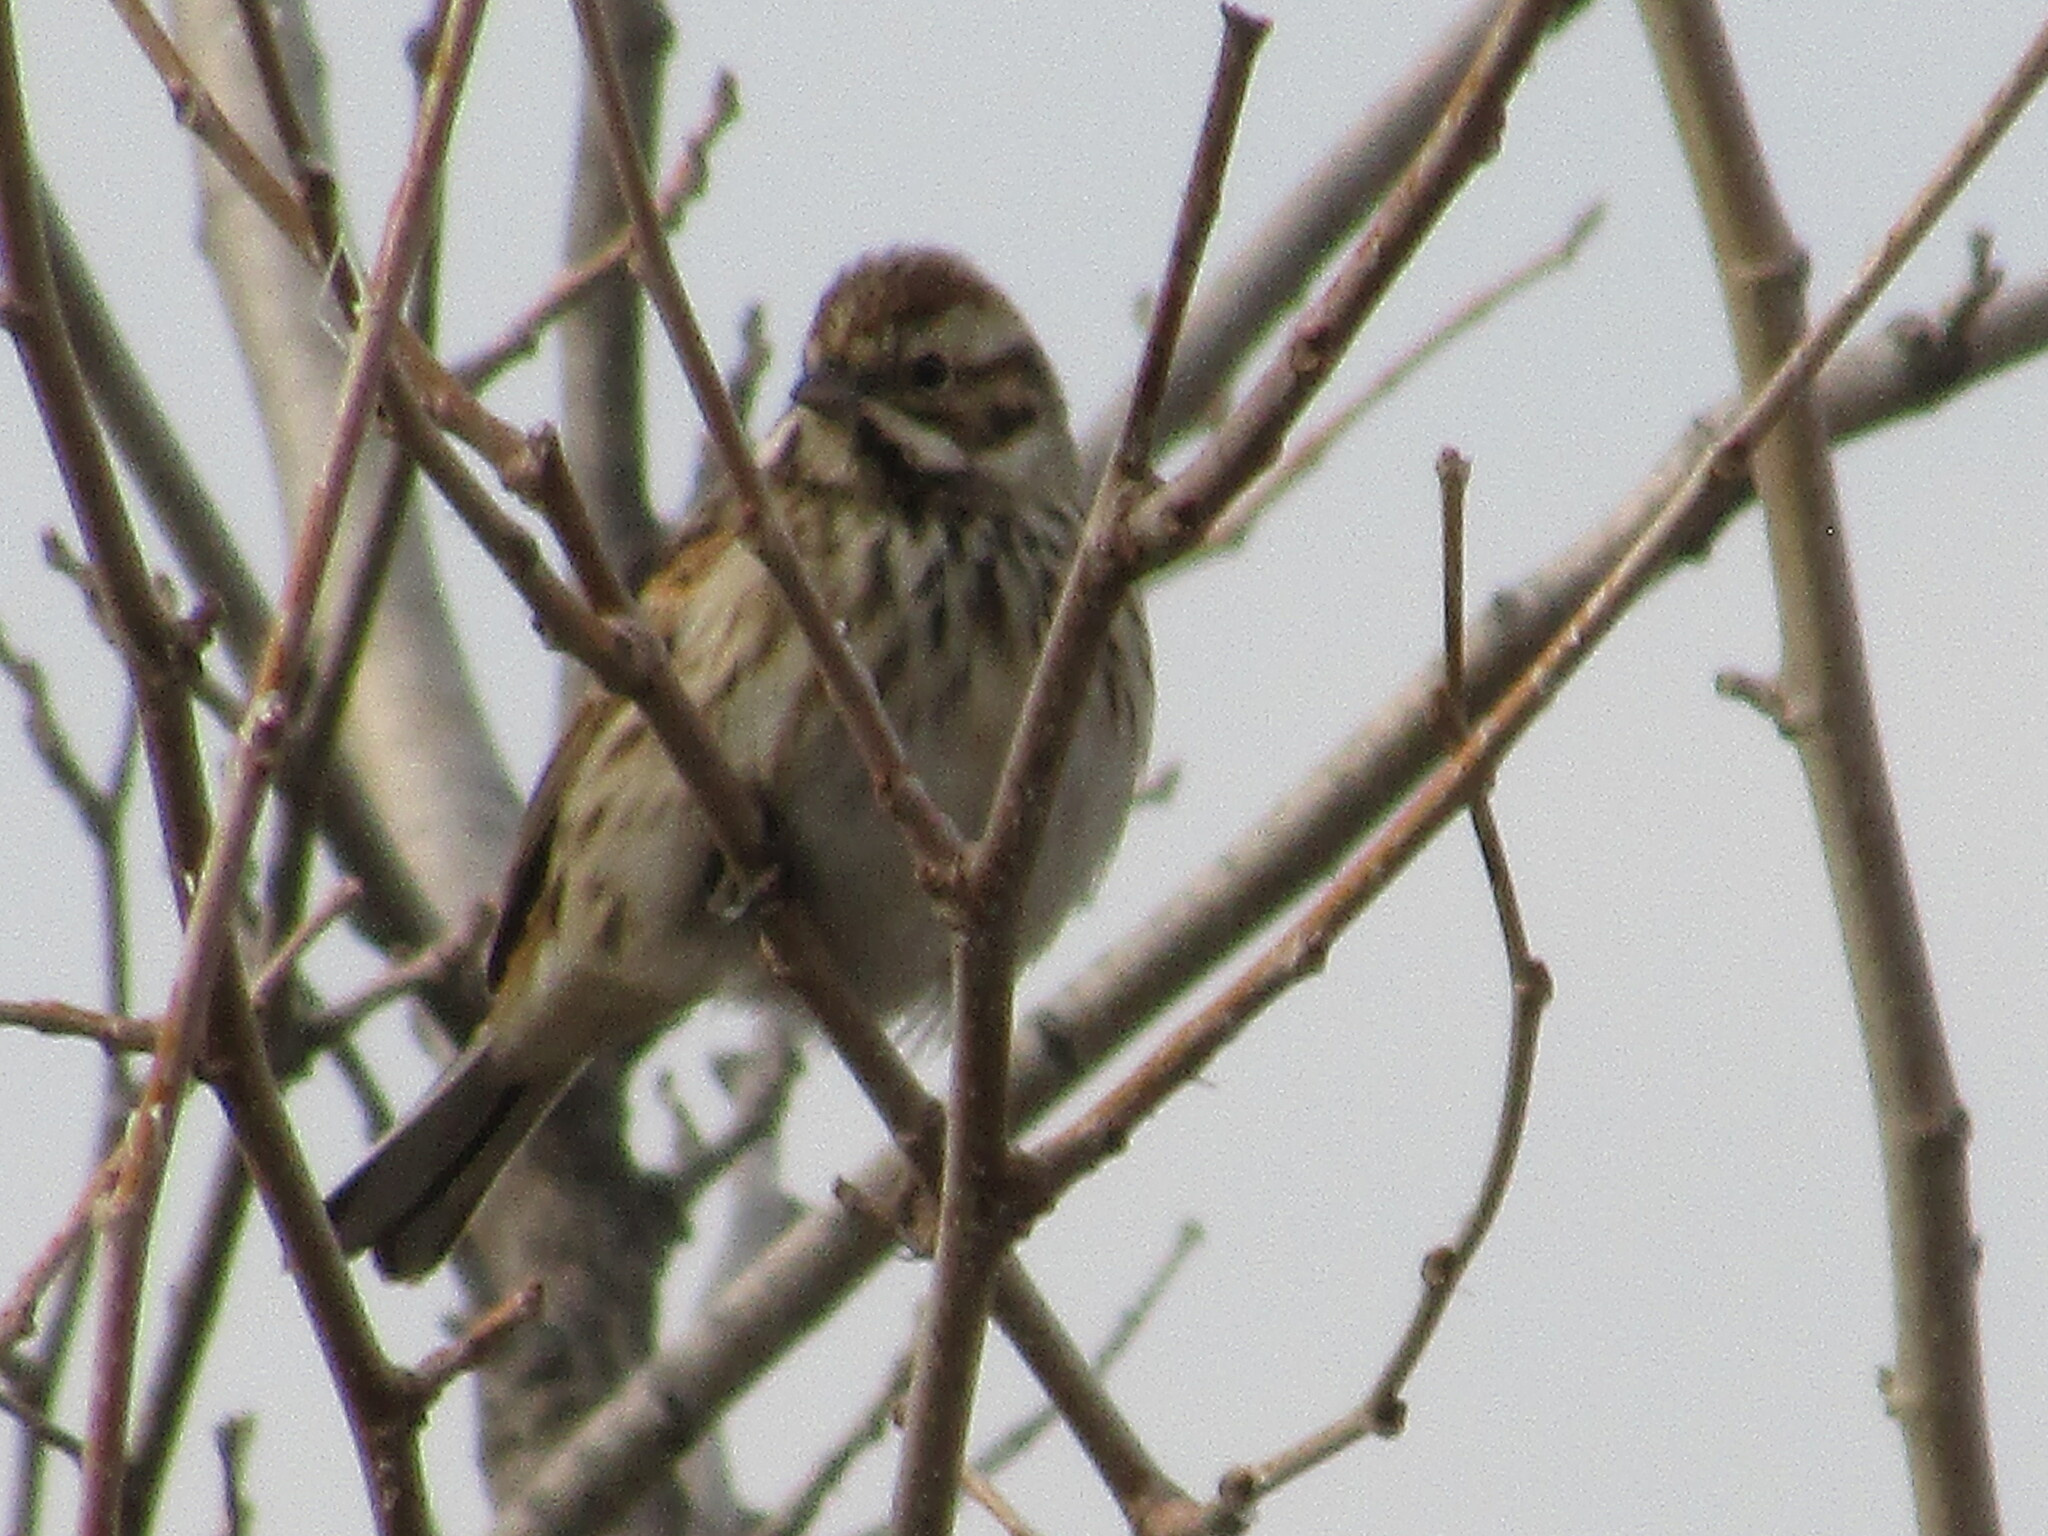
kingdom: Animalia
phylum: Chordata
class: Aves
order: Passeriformes
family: Emberizidae
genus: Emberiza
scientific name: Emberiza schoeniclus
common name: Reed bunting
